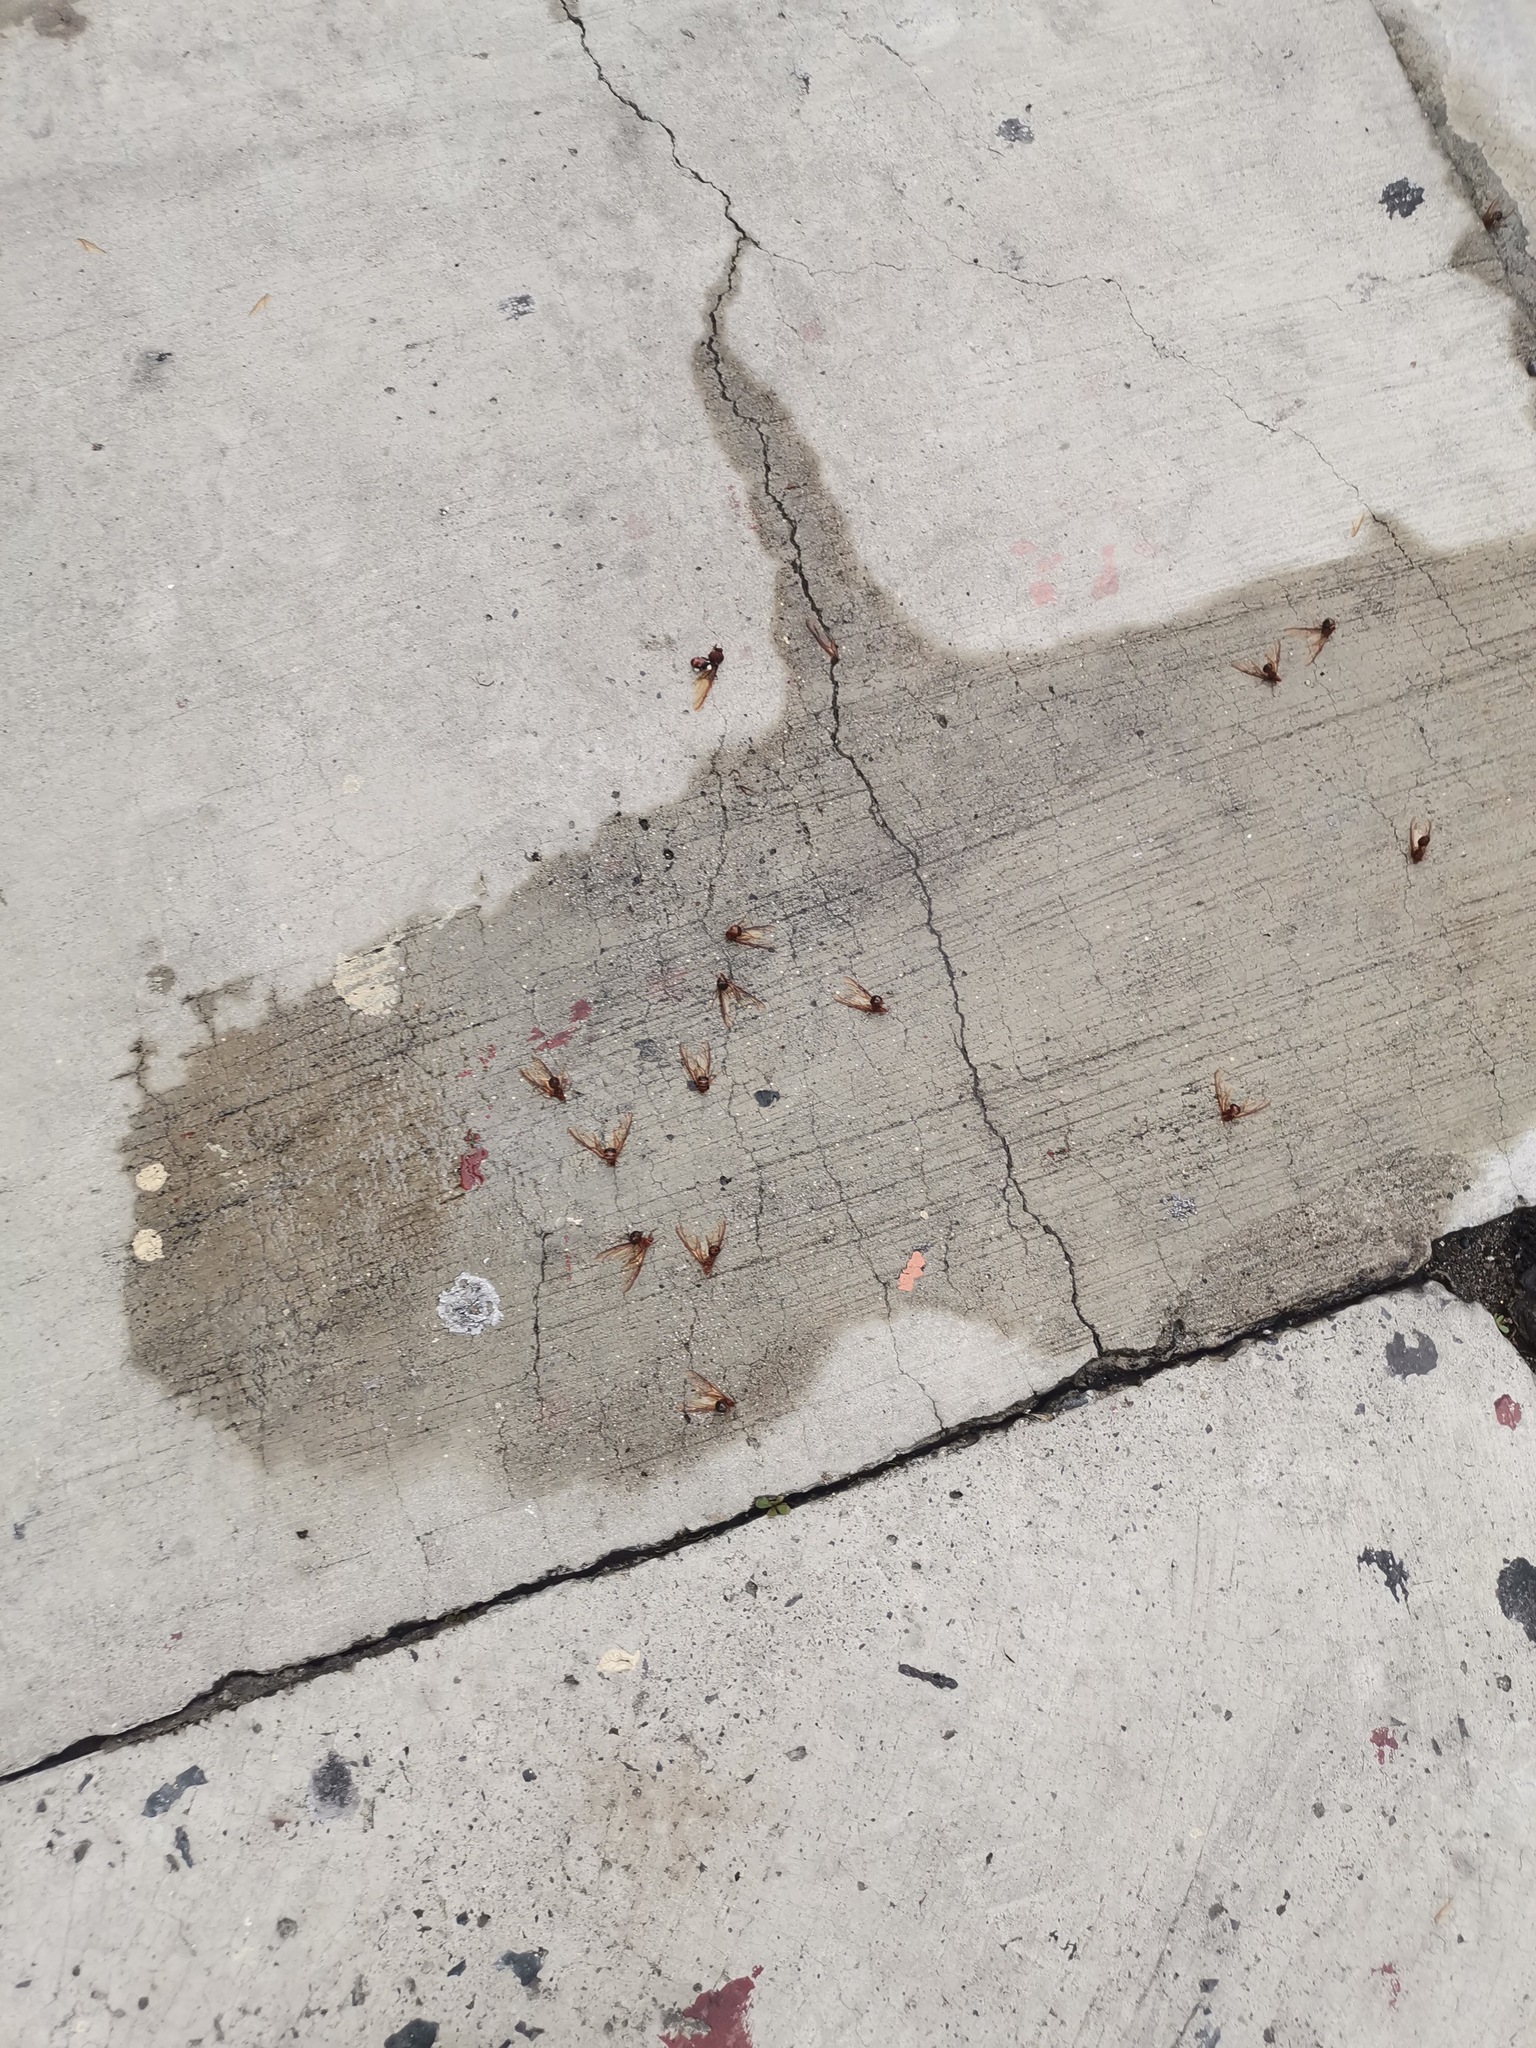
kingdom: Animalia
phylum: Arthropoda
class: Insecta
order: Hymenoptera
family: Formicidae
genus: Atta
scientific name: Atta mexicana
